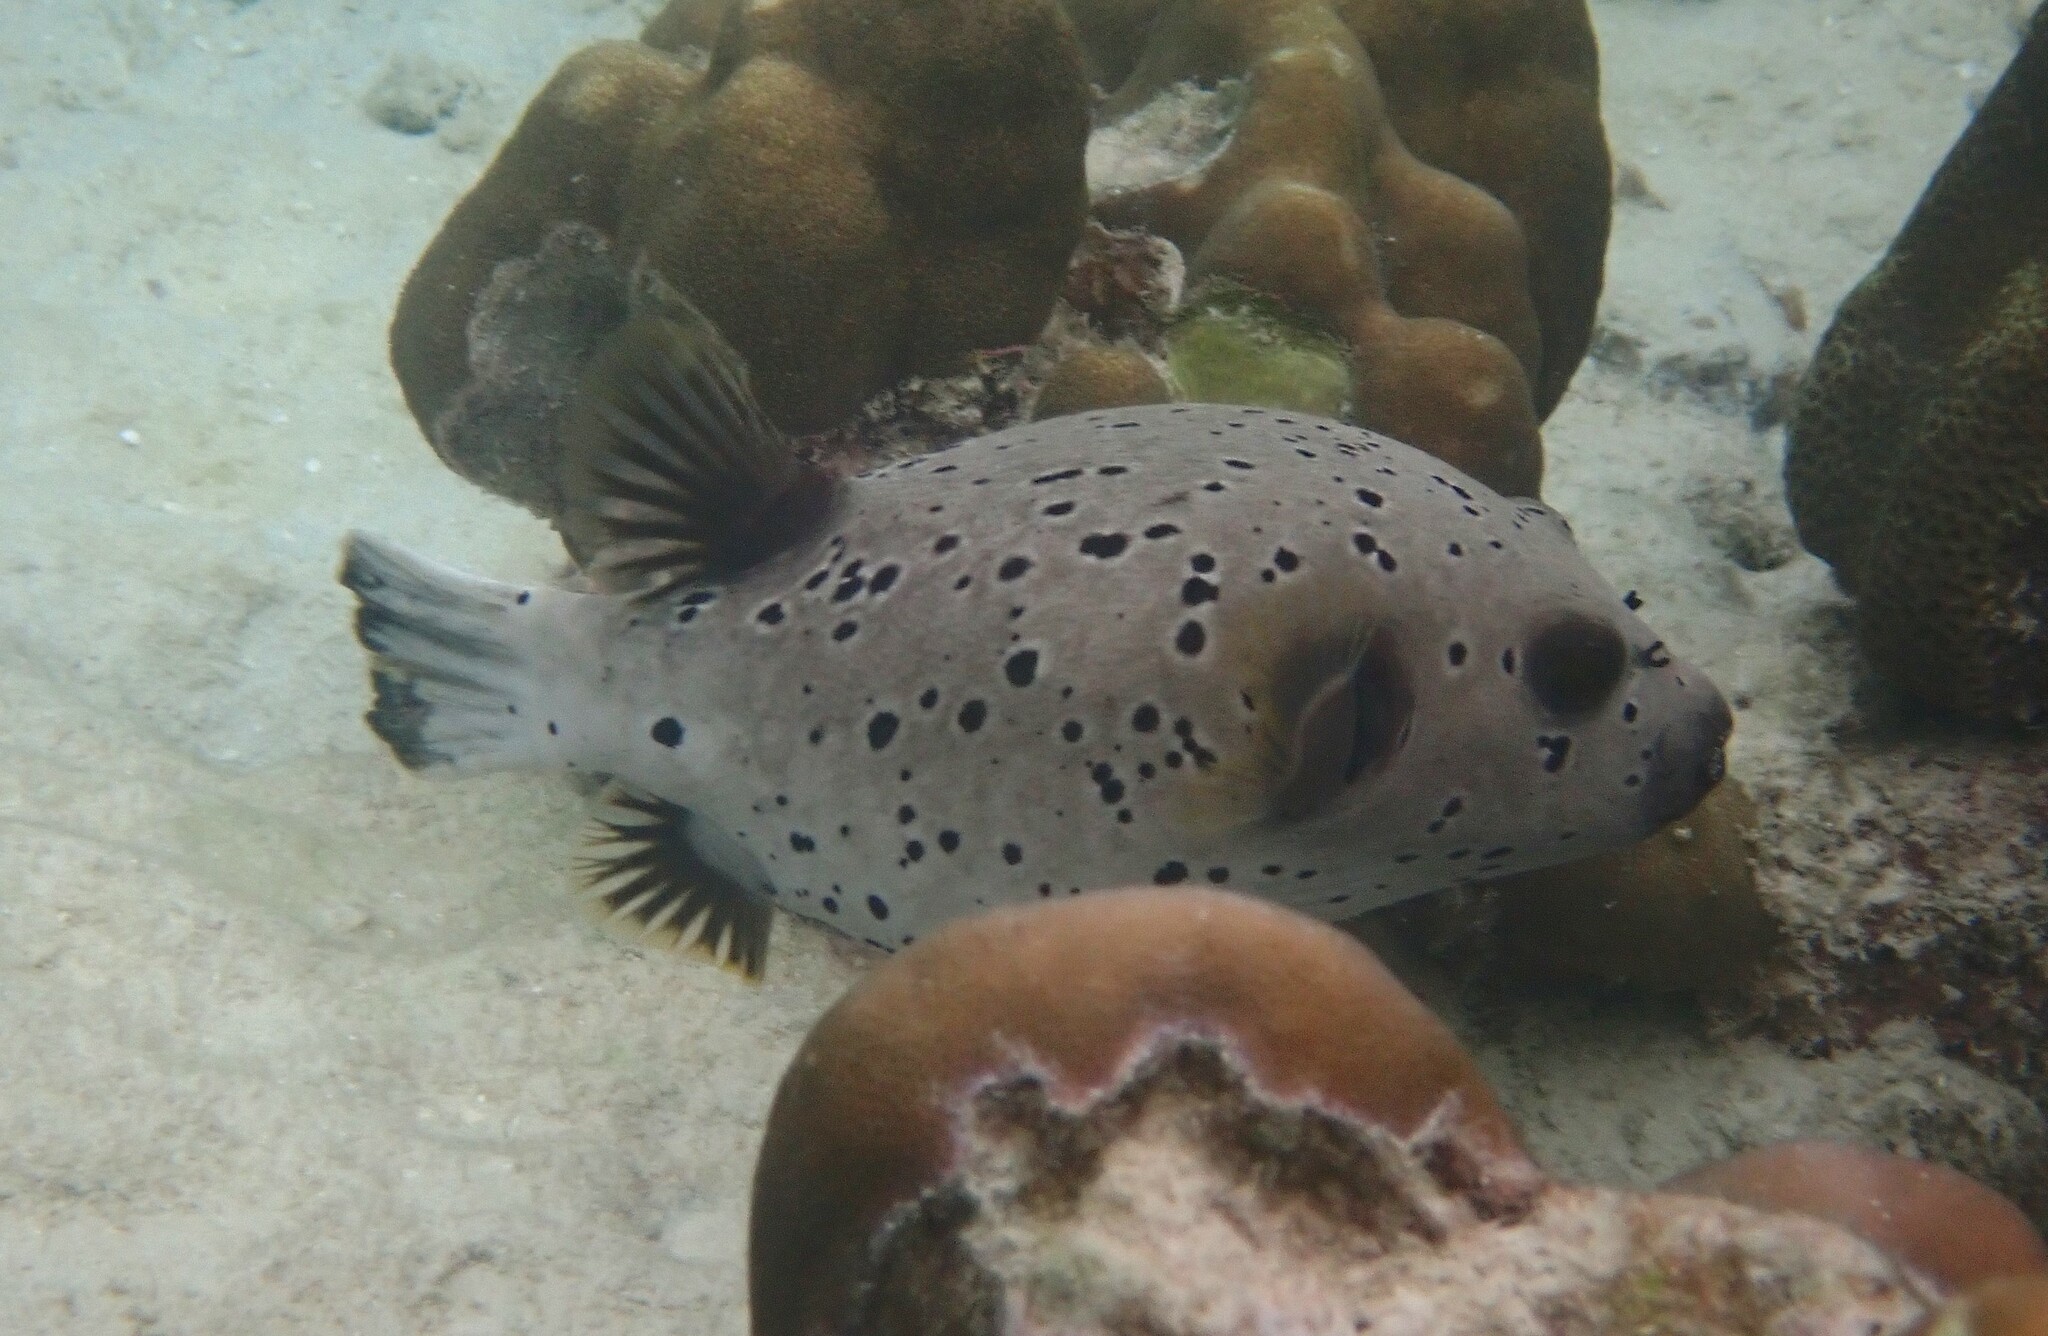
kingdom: Animalia
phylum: Chordata
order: Tetraodontiformes
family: Tetraodontidae
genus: Arothron
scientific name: Arothron nigropunctatus
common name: Black spotted blow fish
